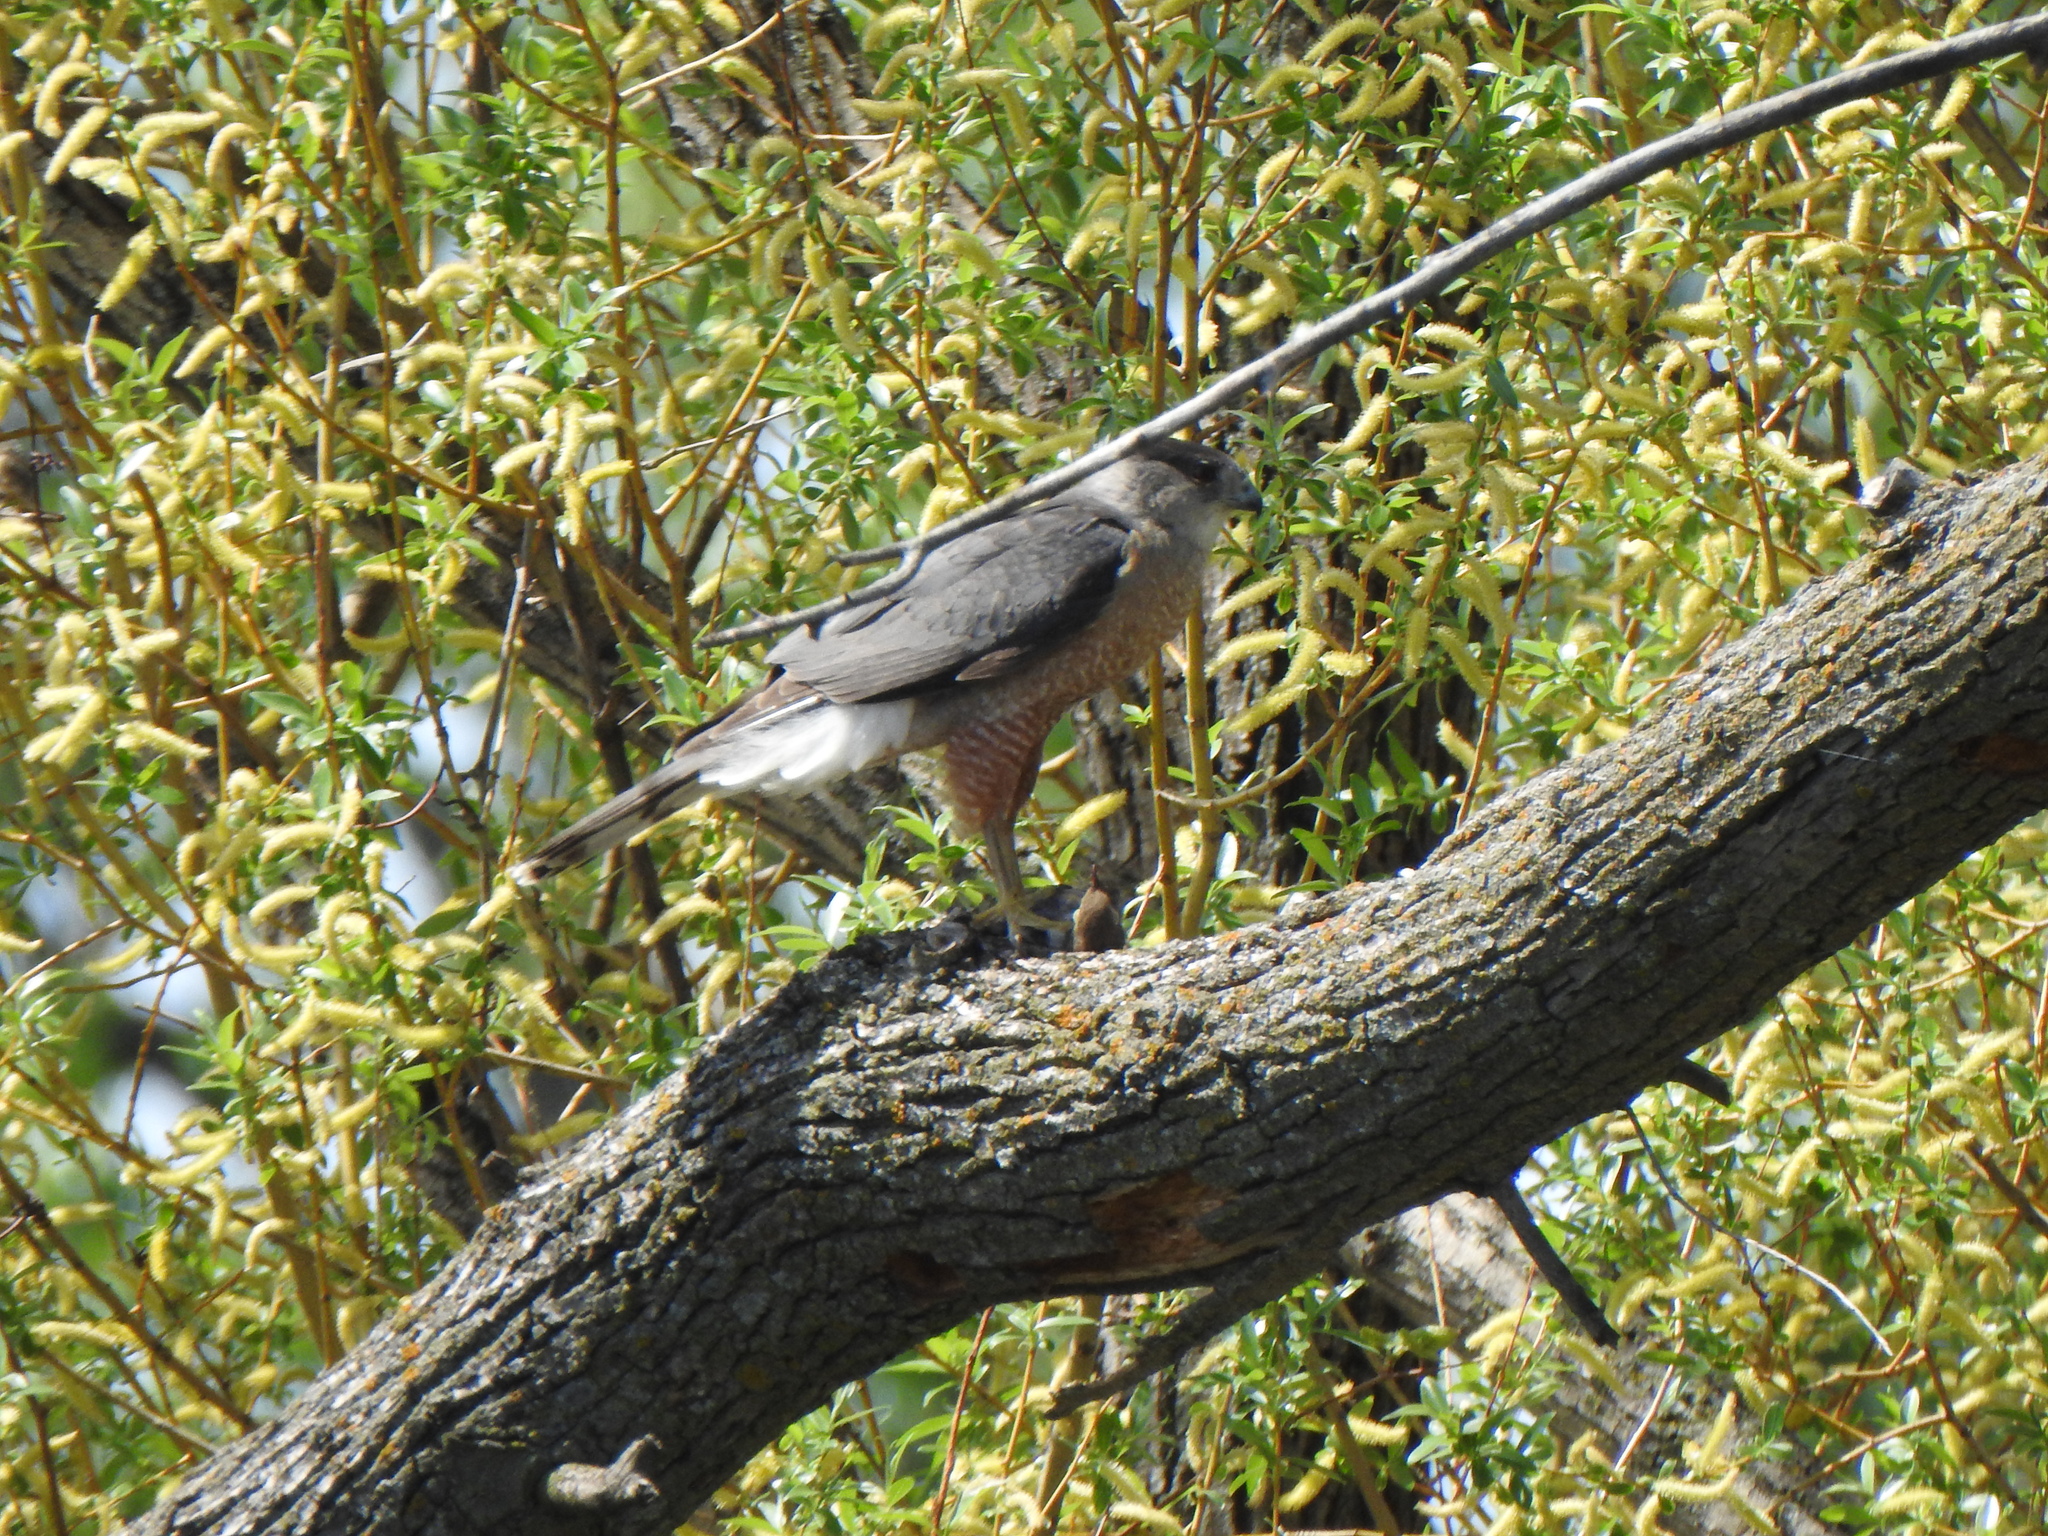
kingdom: Animalia
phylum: Chordata
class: Aves
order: Accipitriformes
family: Accipitridae
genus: Accipiter
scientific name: Accipiter cooperii
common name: Cooper's hawk
